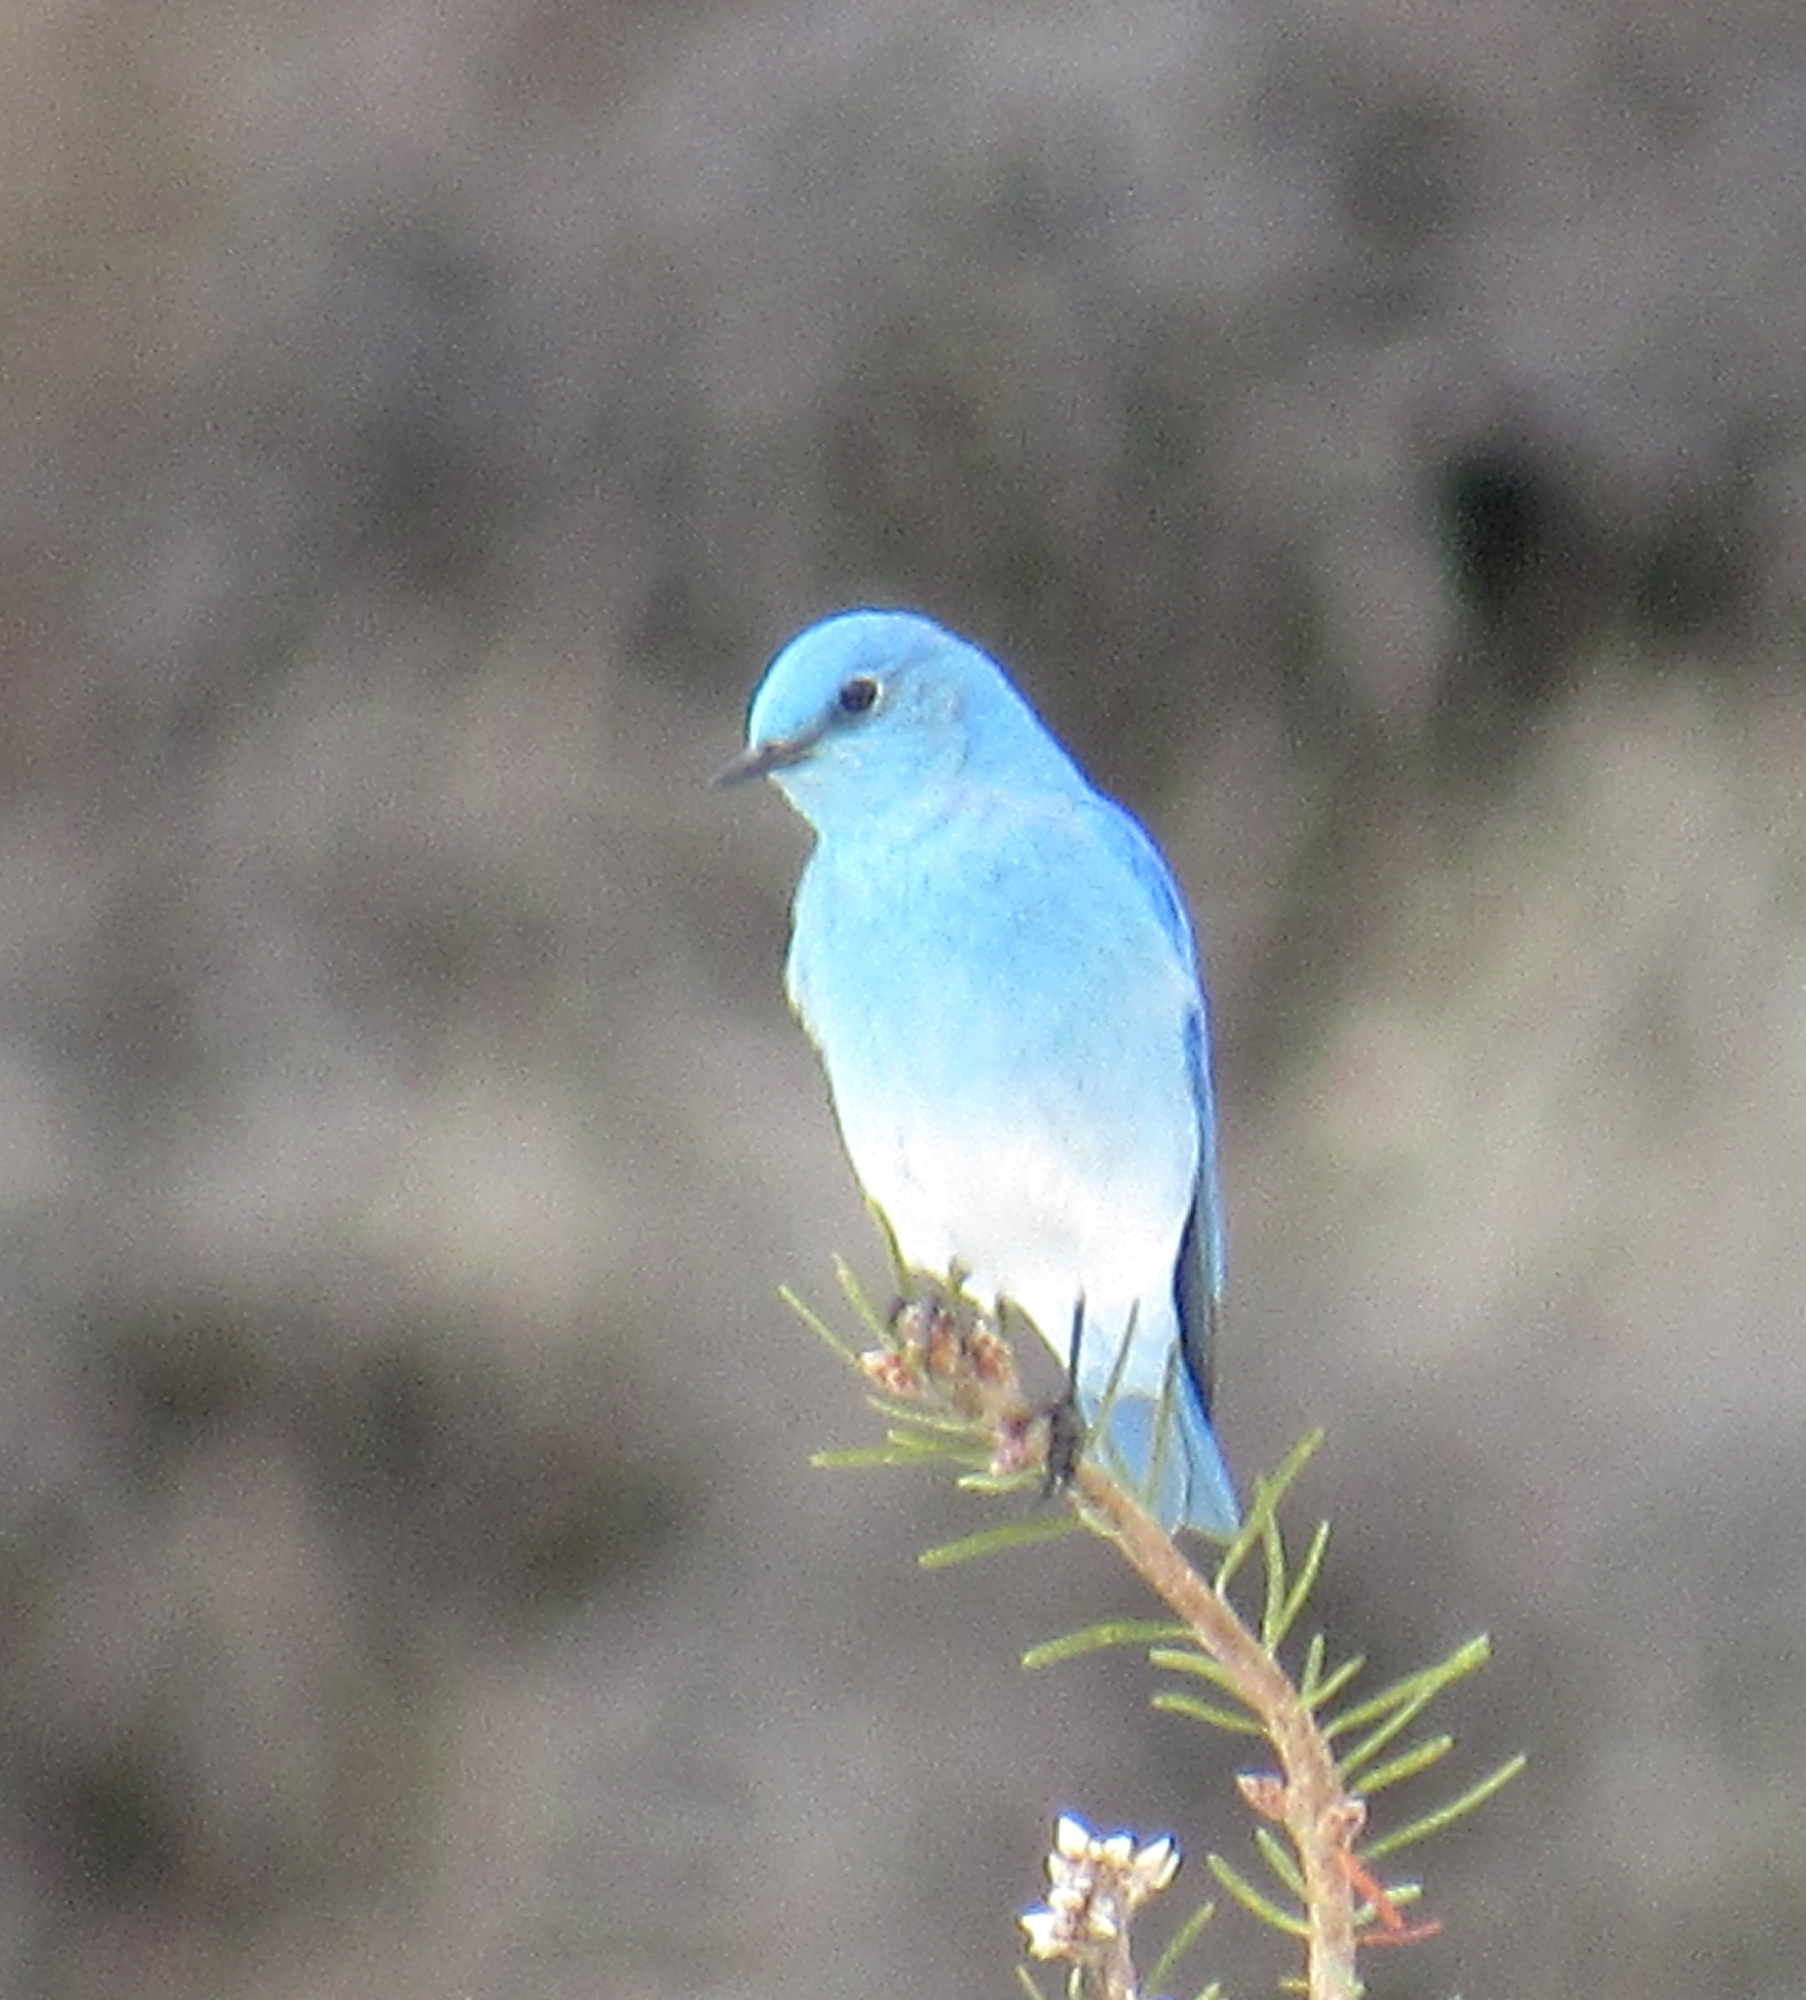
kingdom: Animalia
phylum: Chordata
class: Aves
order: Passeriformes
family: Turdidae
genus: Sialia
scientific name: Sialia currucoides
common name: Mountain bluebird
